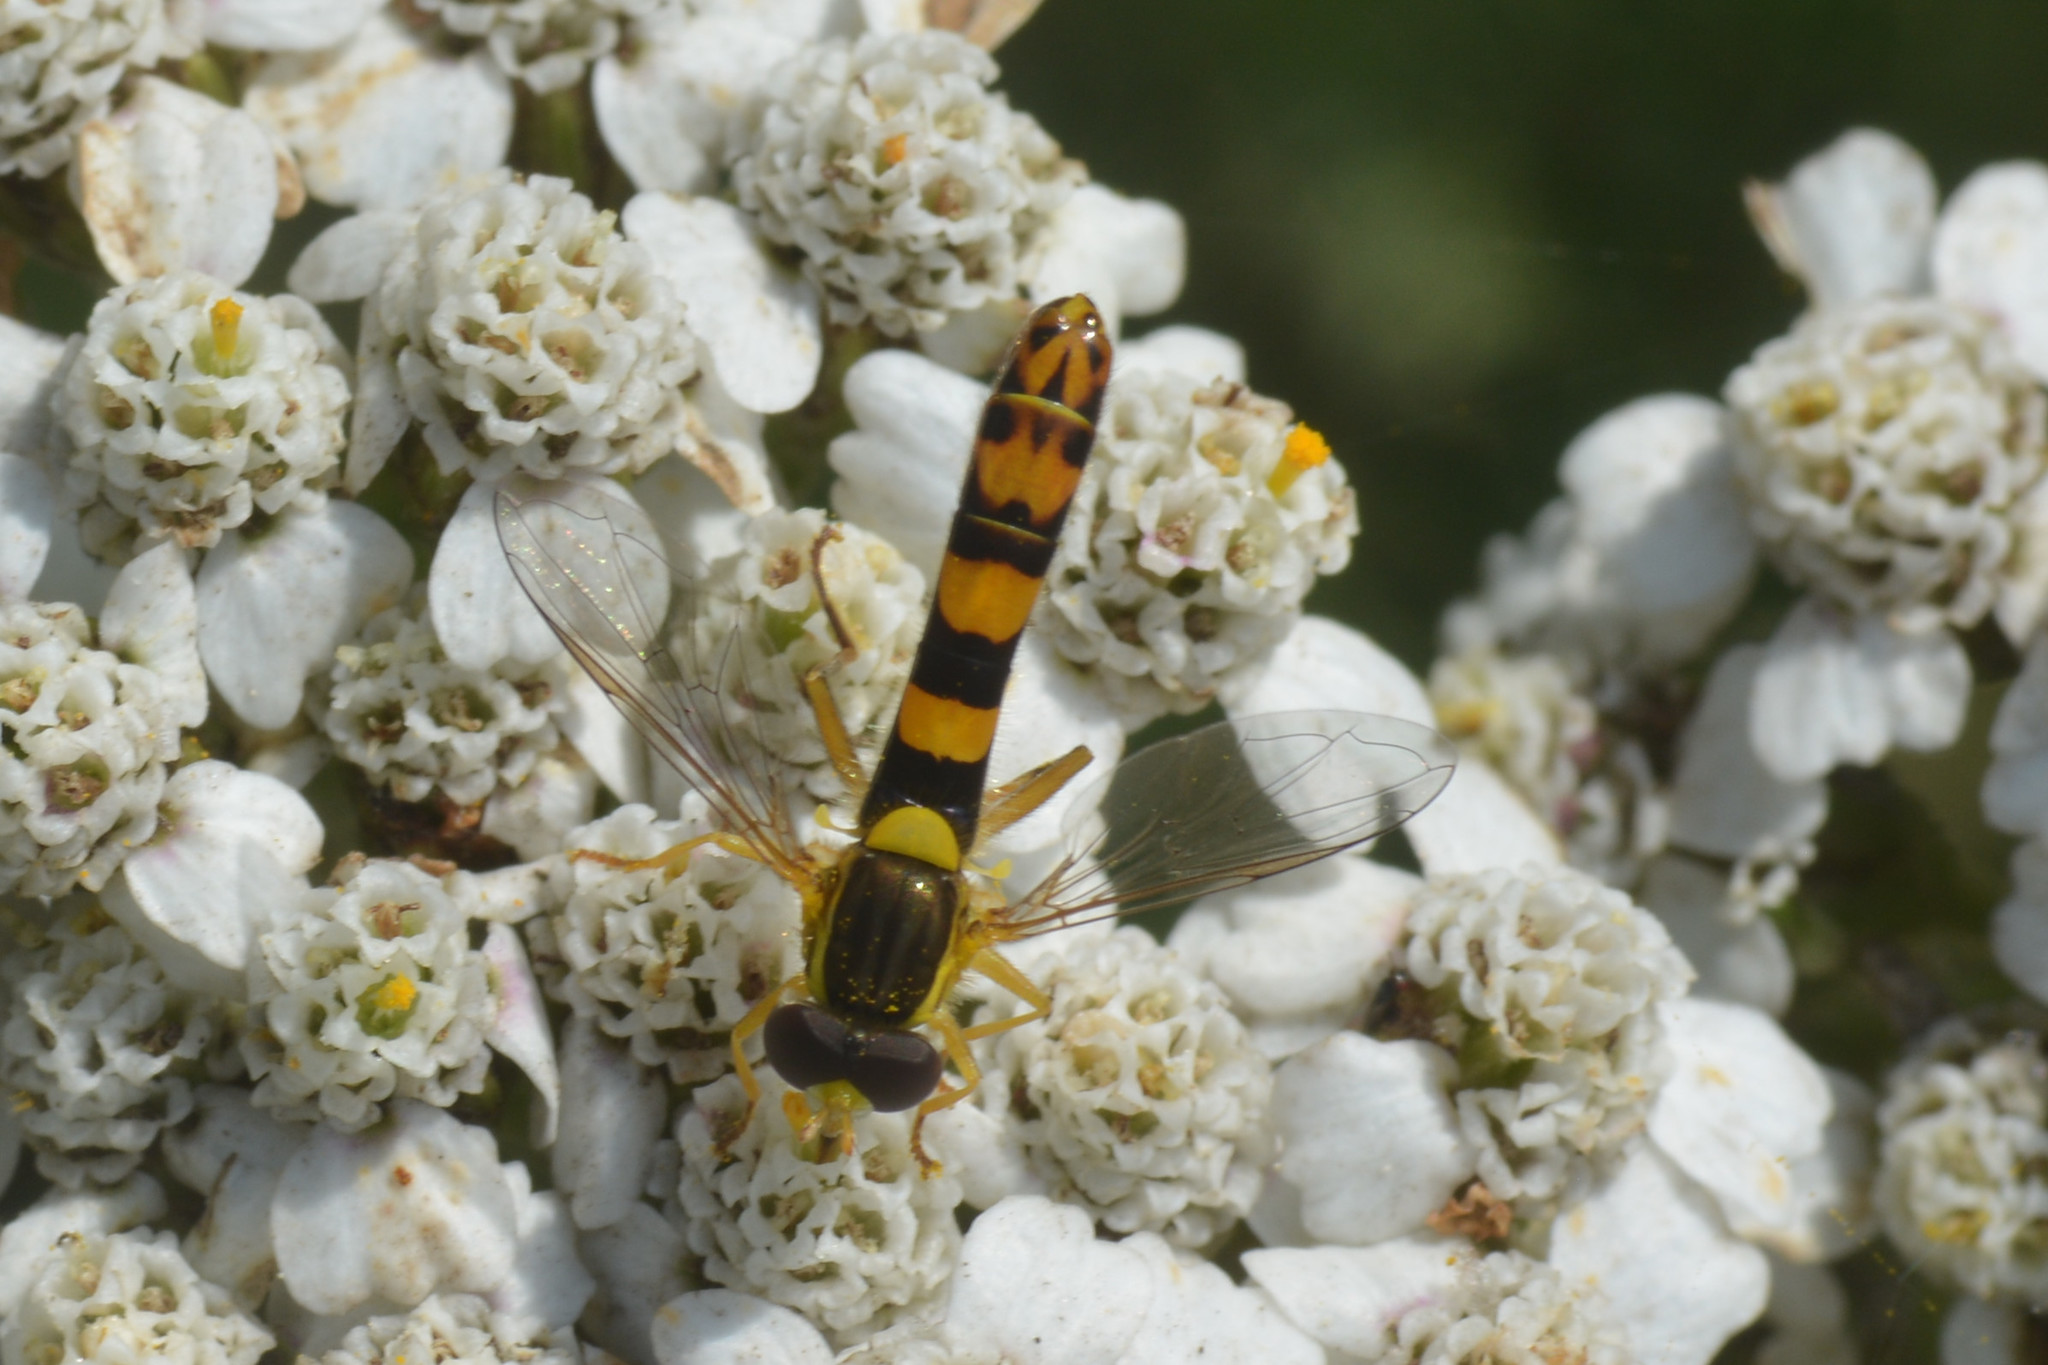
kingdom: Animalia
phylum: Arthropoda
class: Insecta
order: Diptera
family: Syrphidae
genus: Sphaerophoria
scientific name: Sphaerophoria scripta
